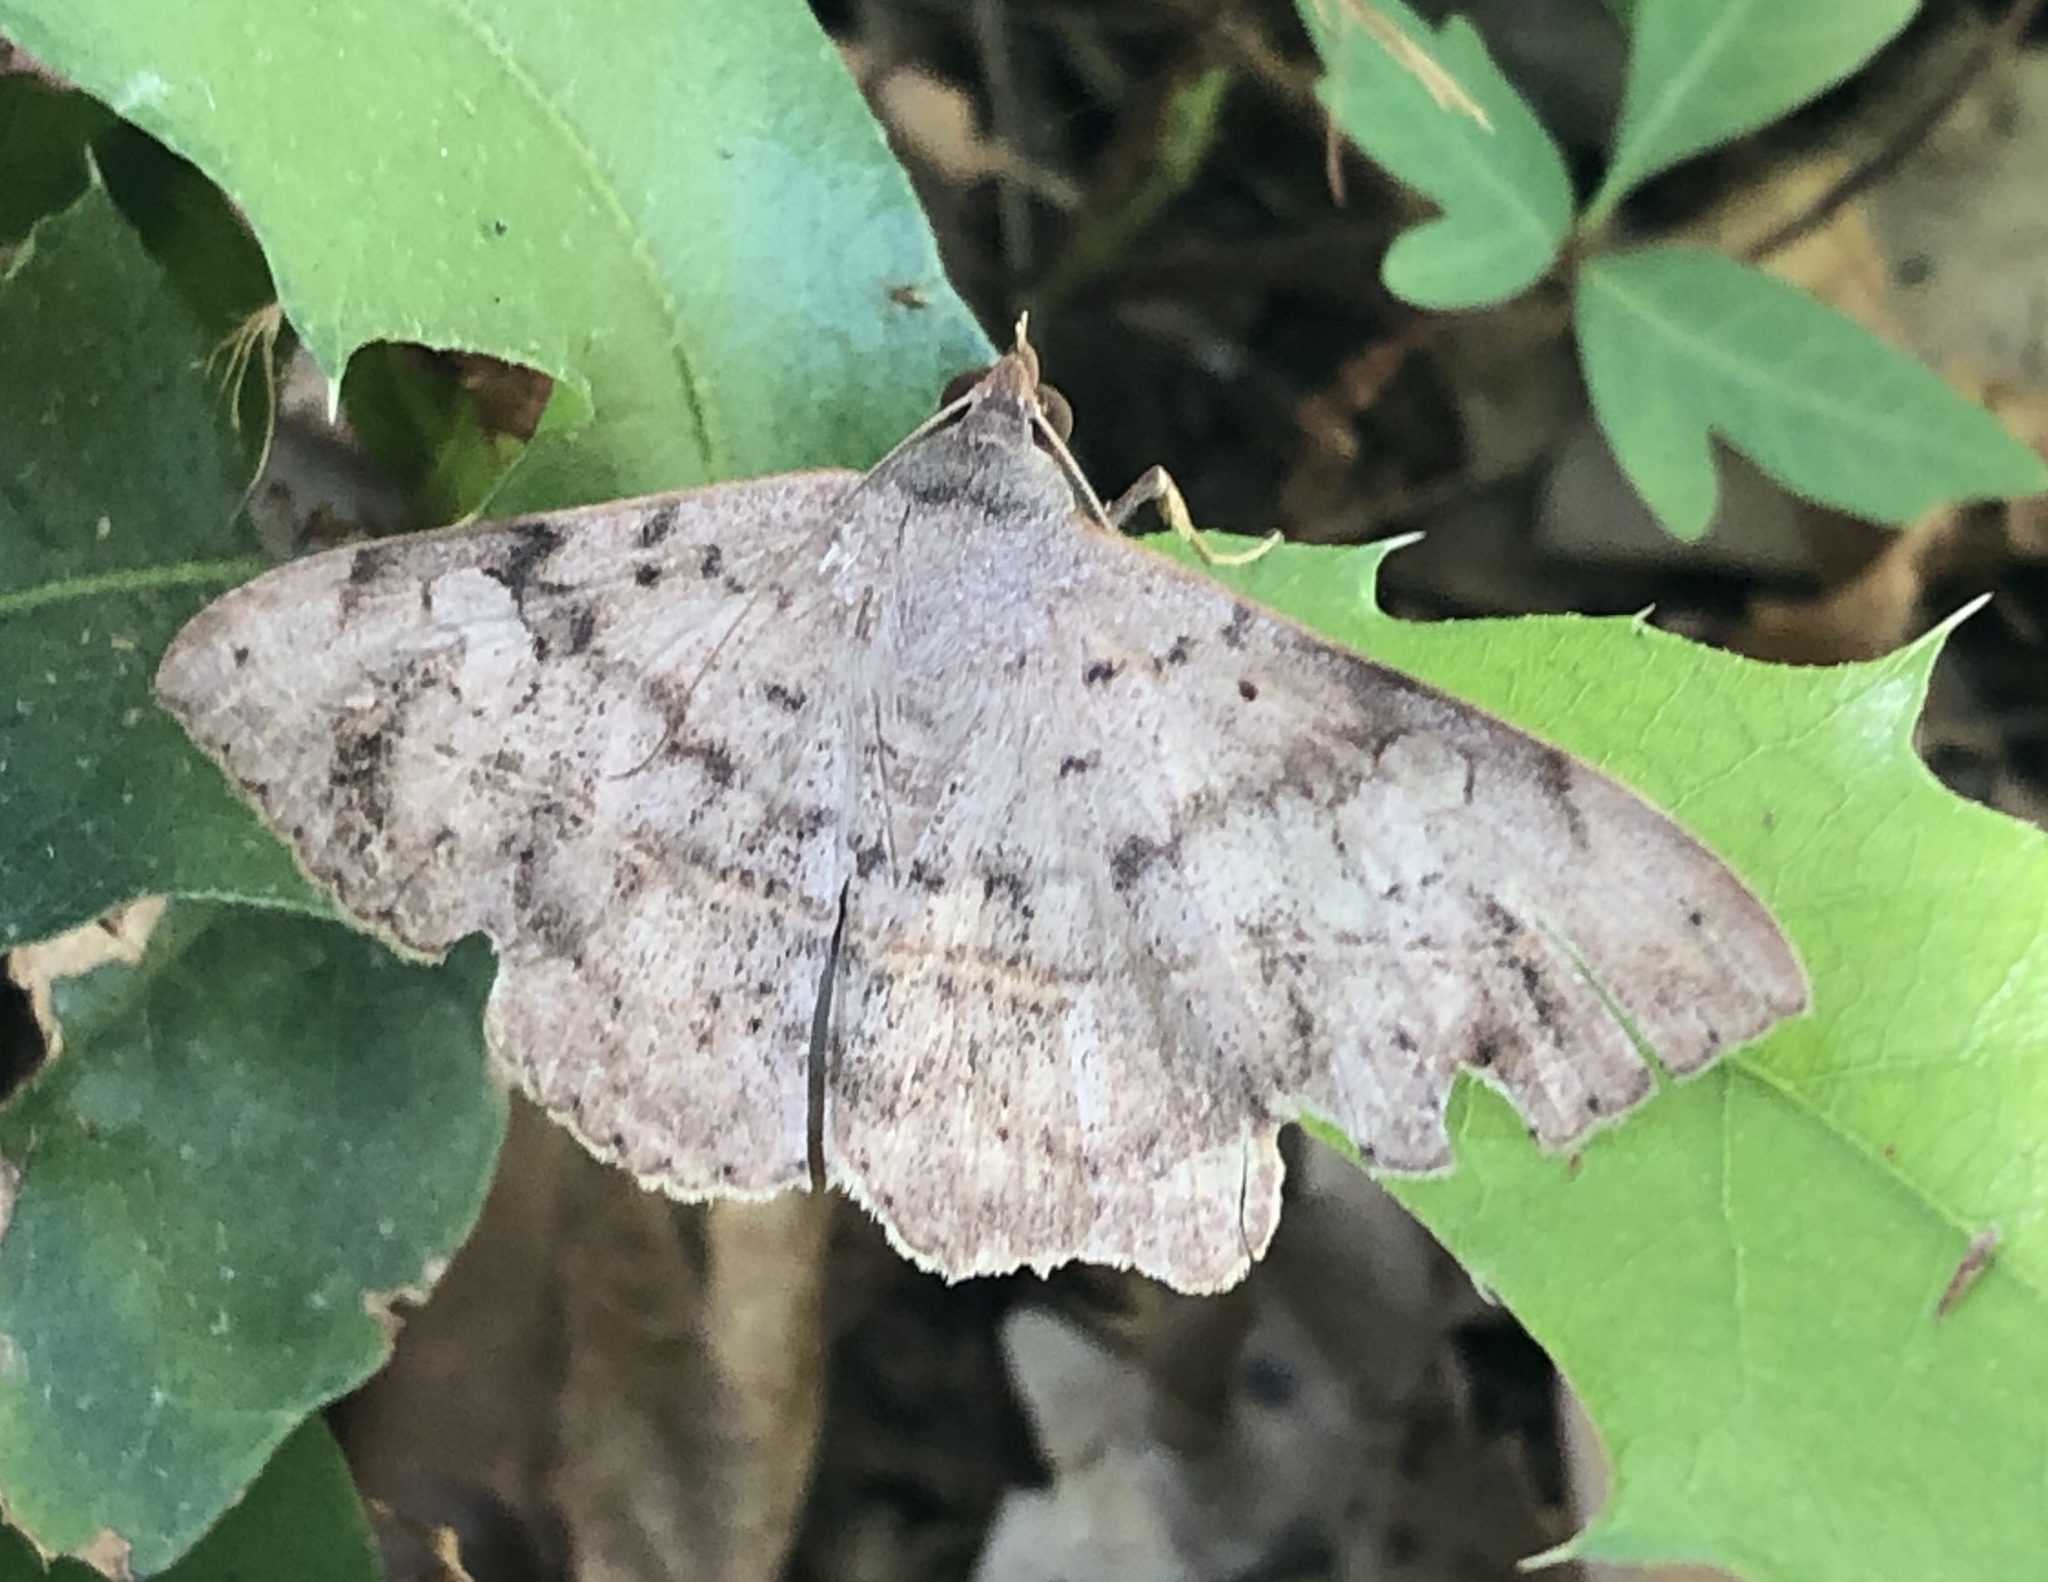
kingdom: Animalia
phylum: Arthropoda
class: Insecta
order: Lepidoptera
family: Erebidae
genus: Anticarsia
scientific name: Anticarsia gemmatalis
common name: Cutworm moth
